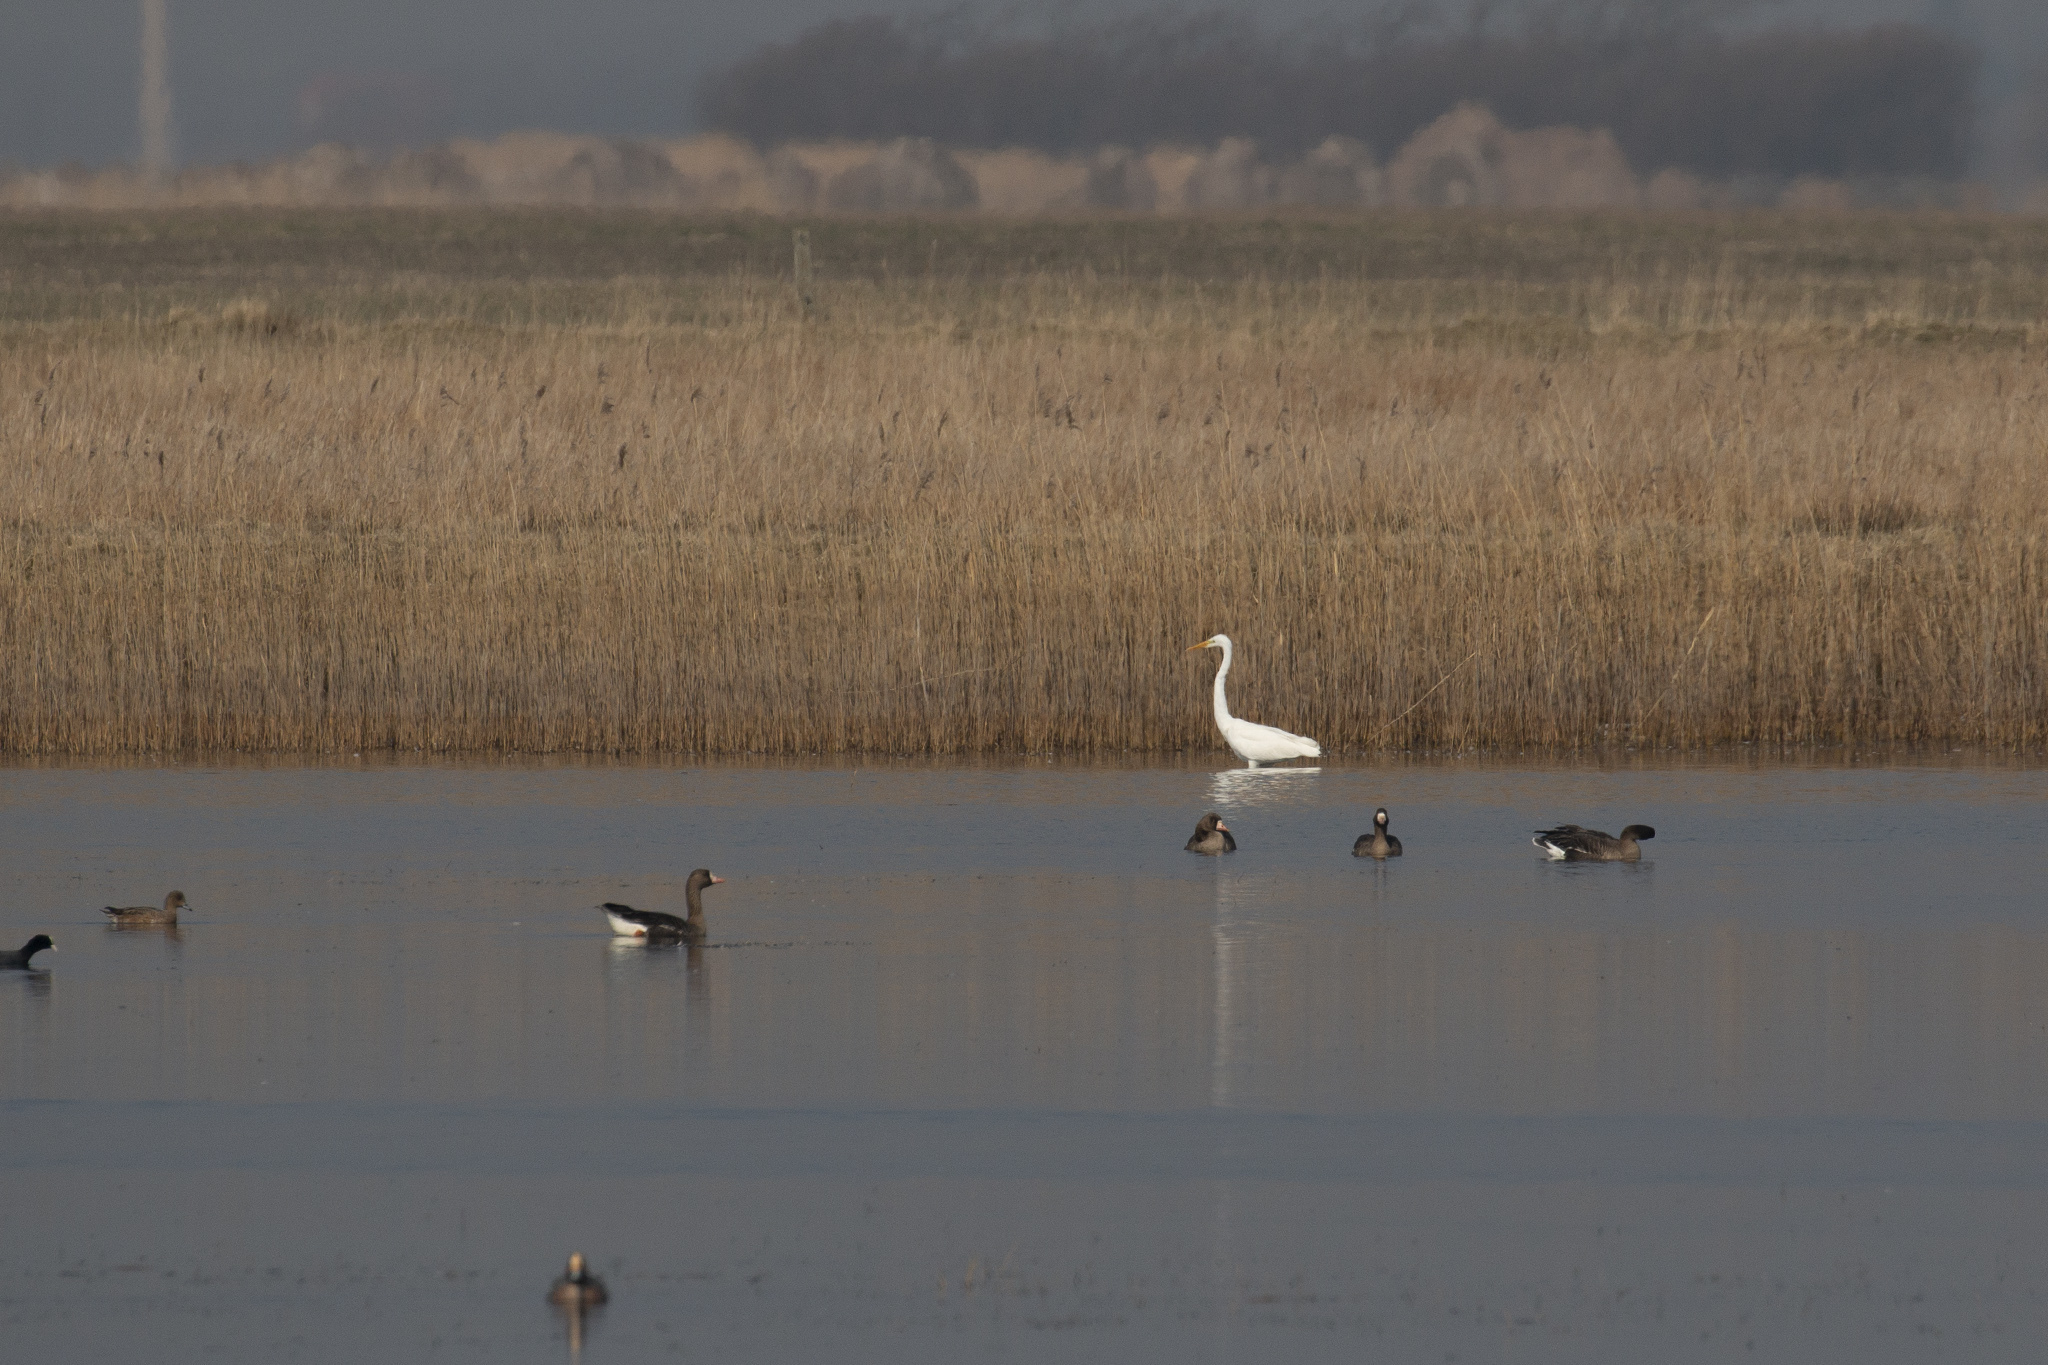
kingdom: Animalia
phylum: Chordata
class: Aves
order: Pelecaniformes
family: Ardeidae
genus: Ardea
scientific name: Ardea alba
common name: Great egret
